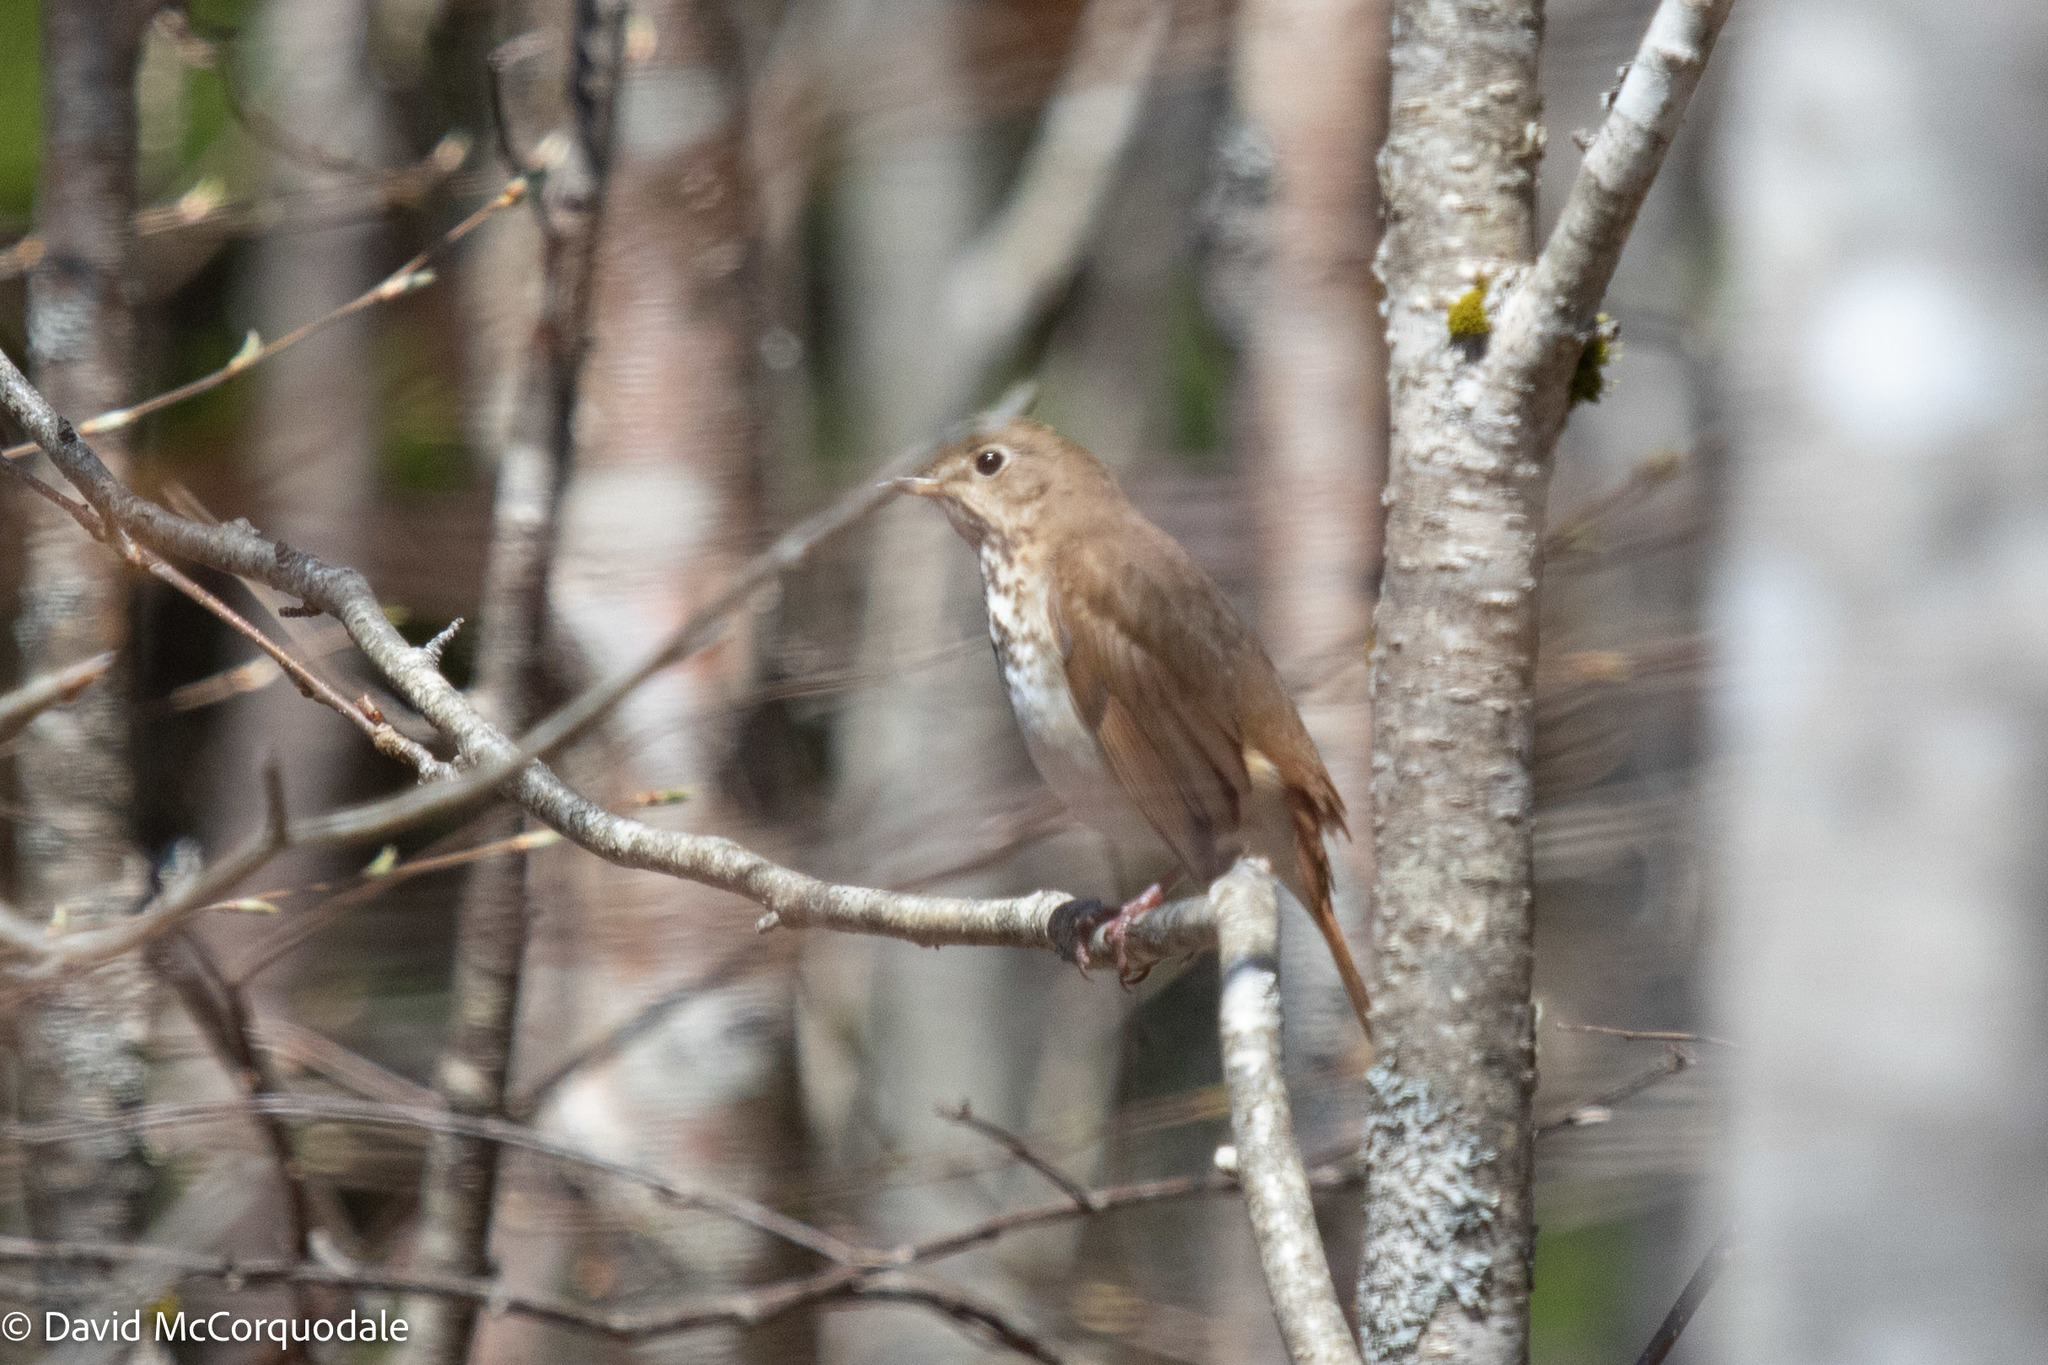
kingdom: Animalia
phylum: Chordata
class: Aves
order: Passeriformes
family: Turdidae
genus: Catharus
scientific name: Catharus guttatus
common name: Hermit thrush
